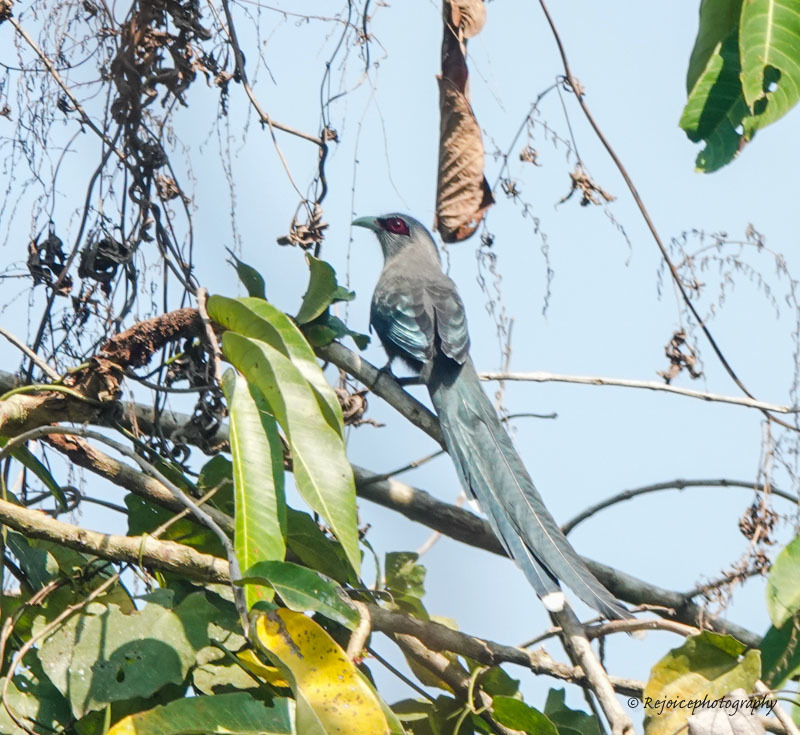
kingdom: Animalia
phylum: Chordata
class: Aves
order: Cuculiformes
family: Cuculidae
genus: Rhopodytes
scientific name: Rhopodytes tristis
